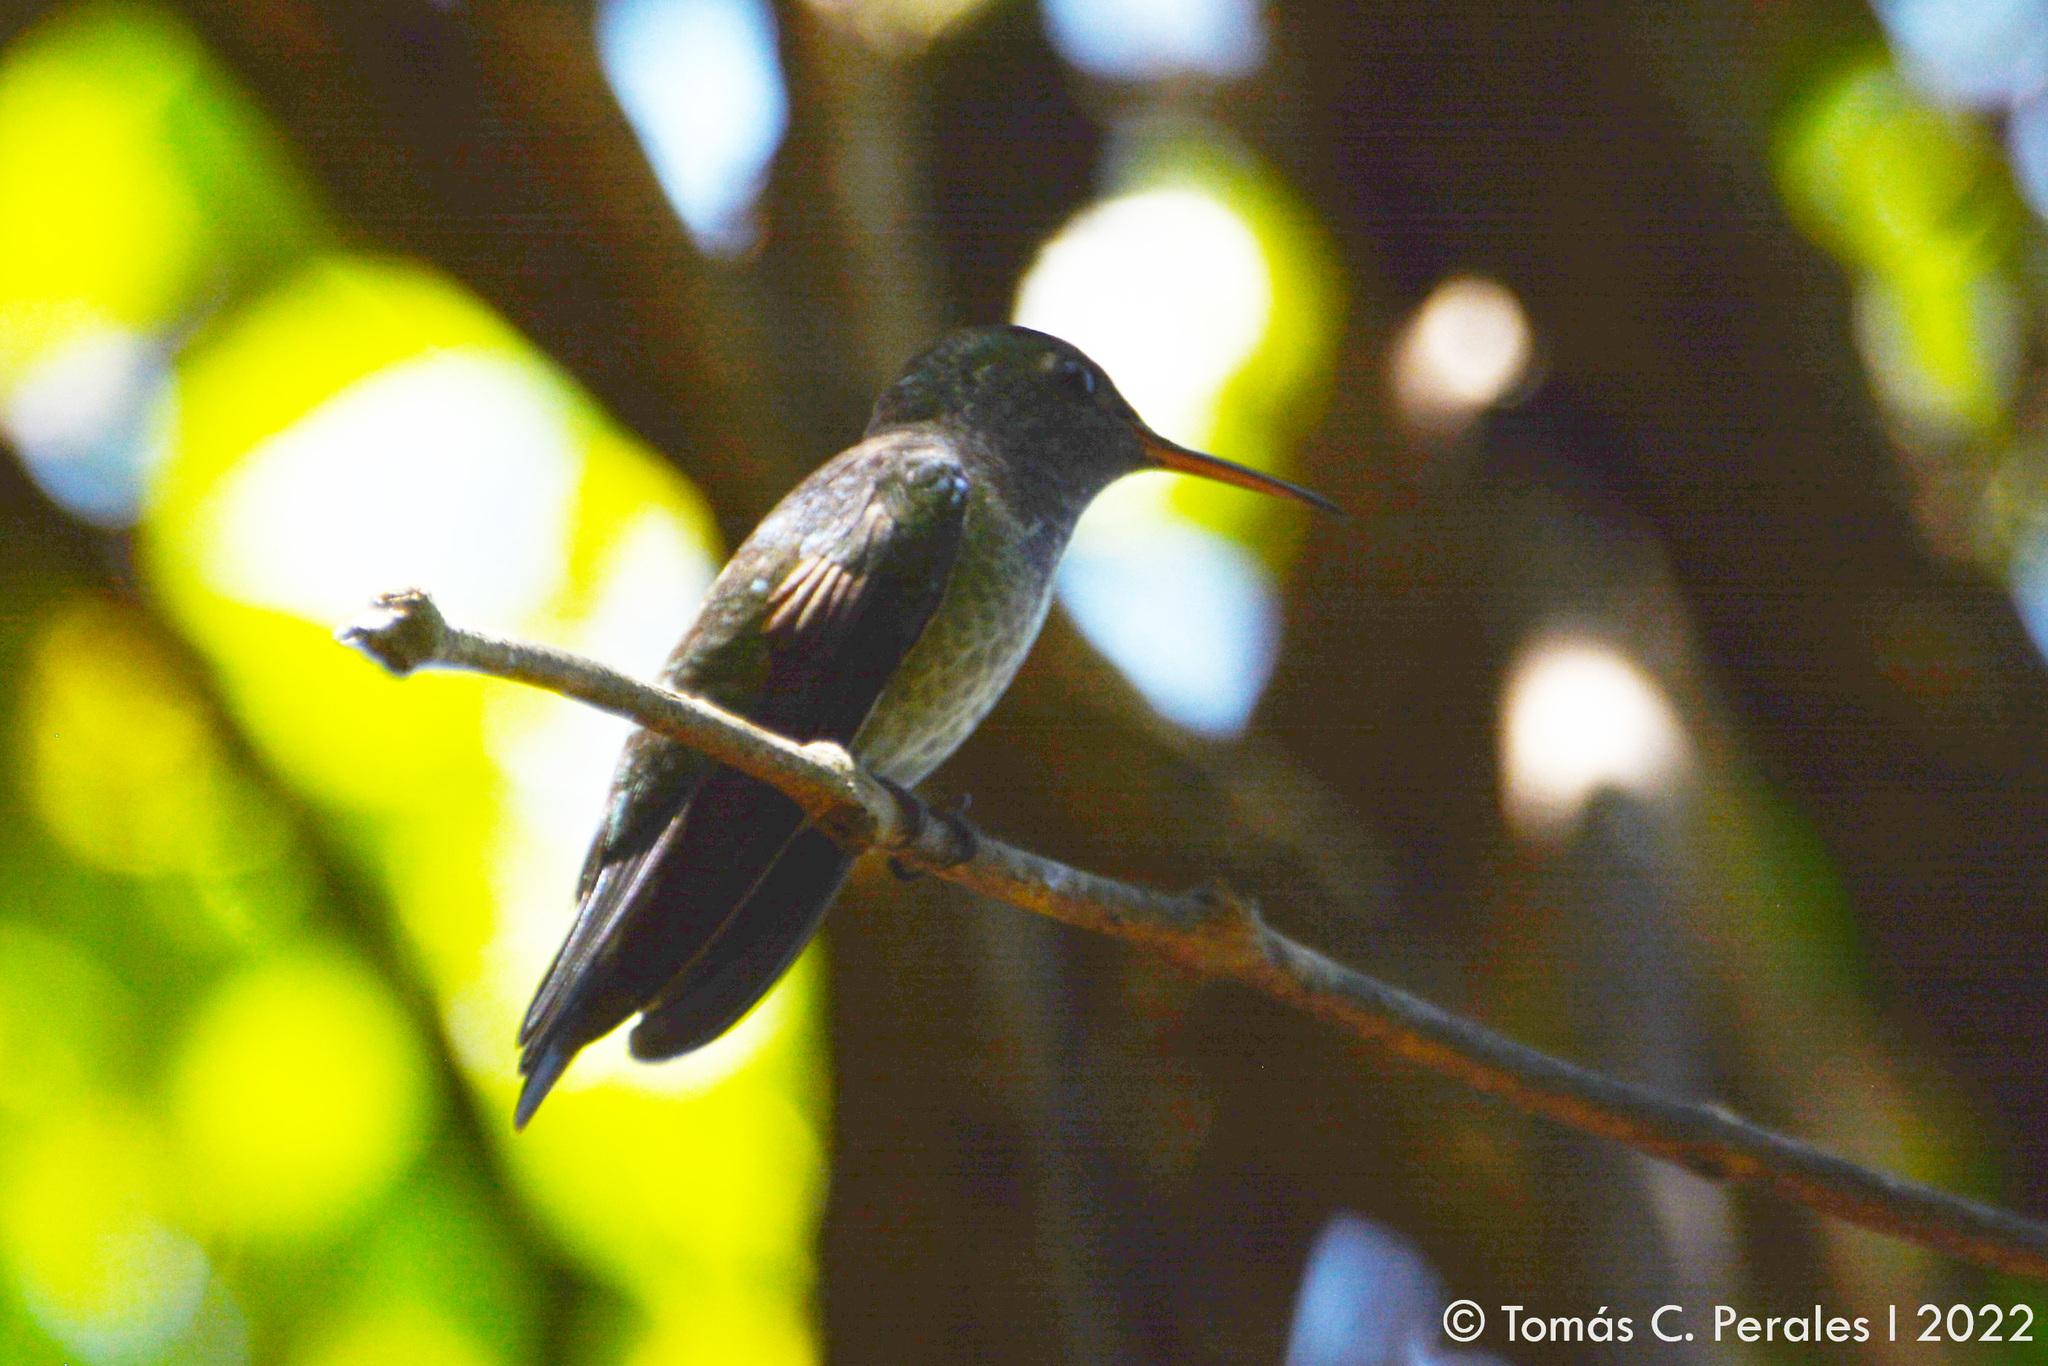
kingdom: Animalia
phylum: Chordata
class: Aves
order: Apodiformes
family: Trochilidae
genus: Chrysuronia
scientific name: Chrysuronia versicolor
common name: Versicolored emerald
